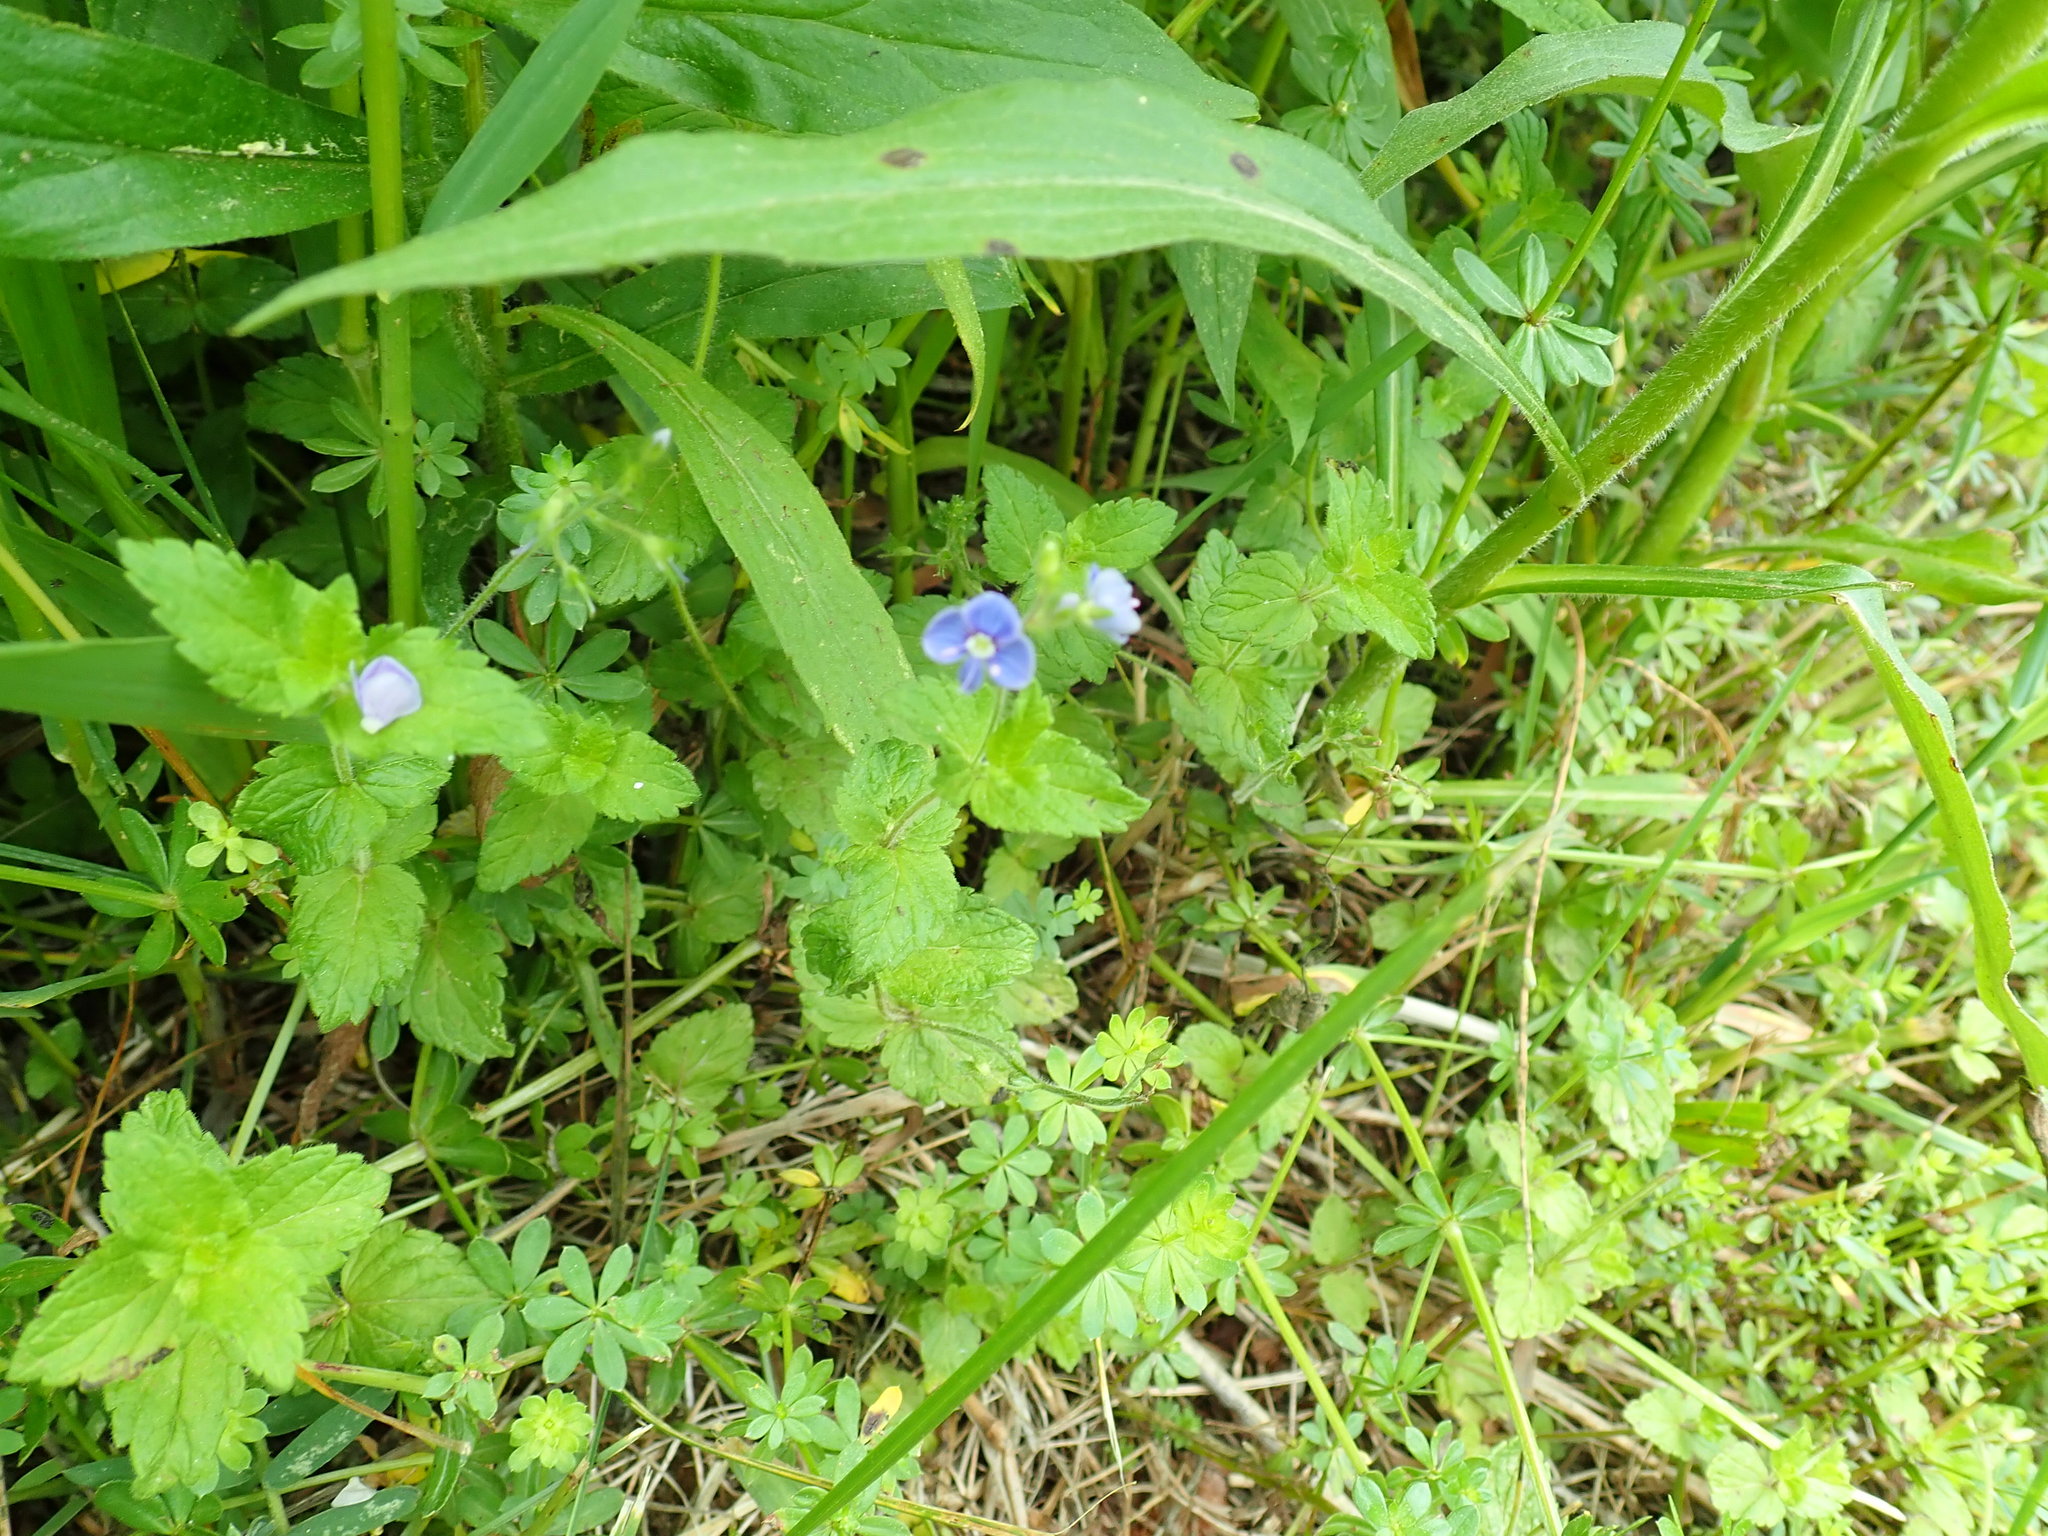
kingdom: Plantae
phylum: Tracheophyta
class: Magnoliopsida
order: Lamiales
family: Plantaginaceae
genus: Veronica
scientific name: Veronica chamaedrys
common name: Germander speedwell
